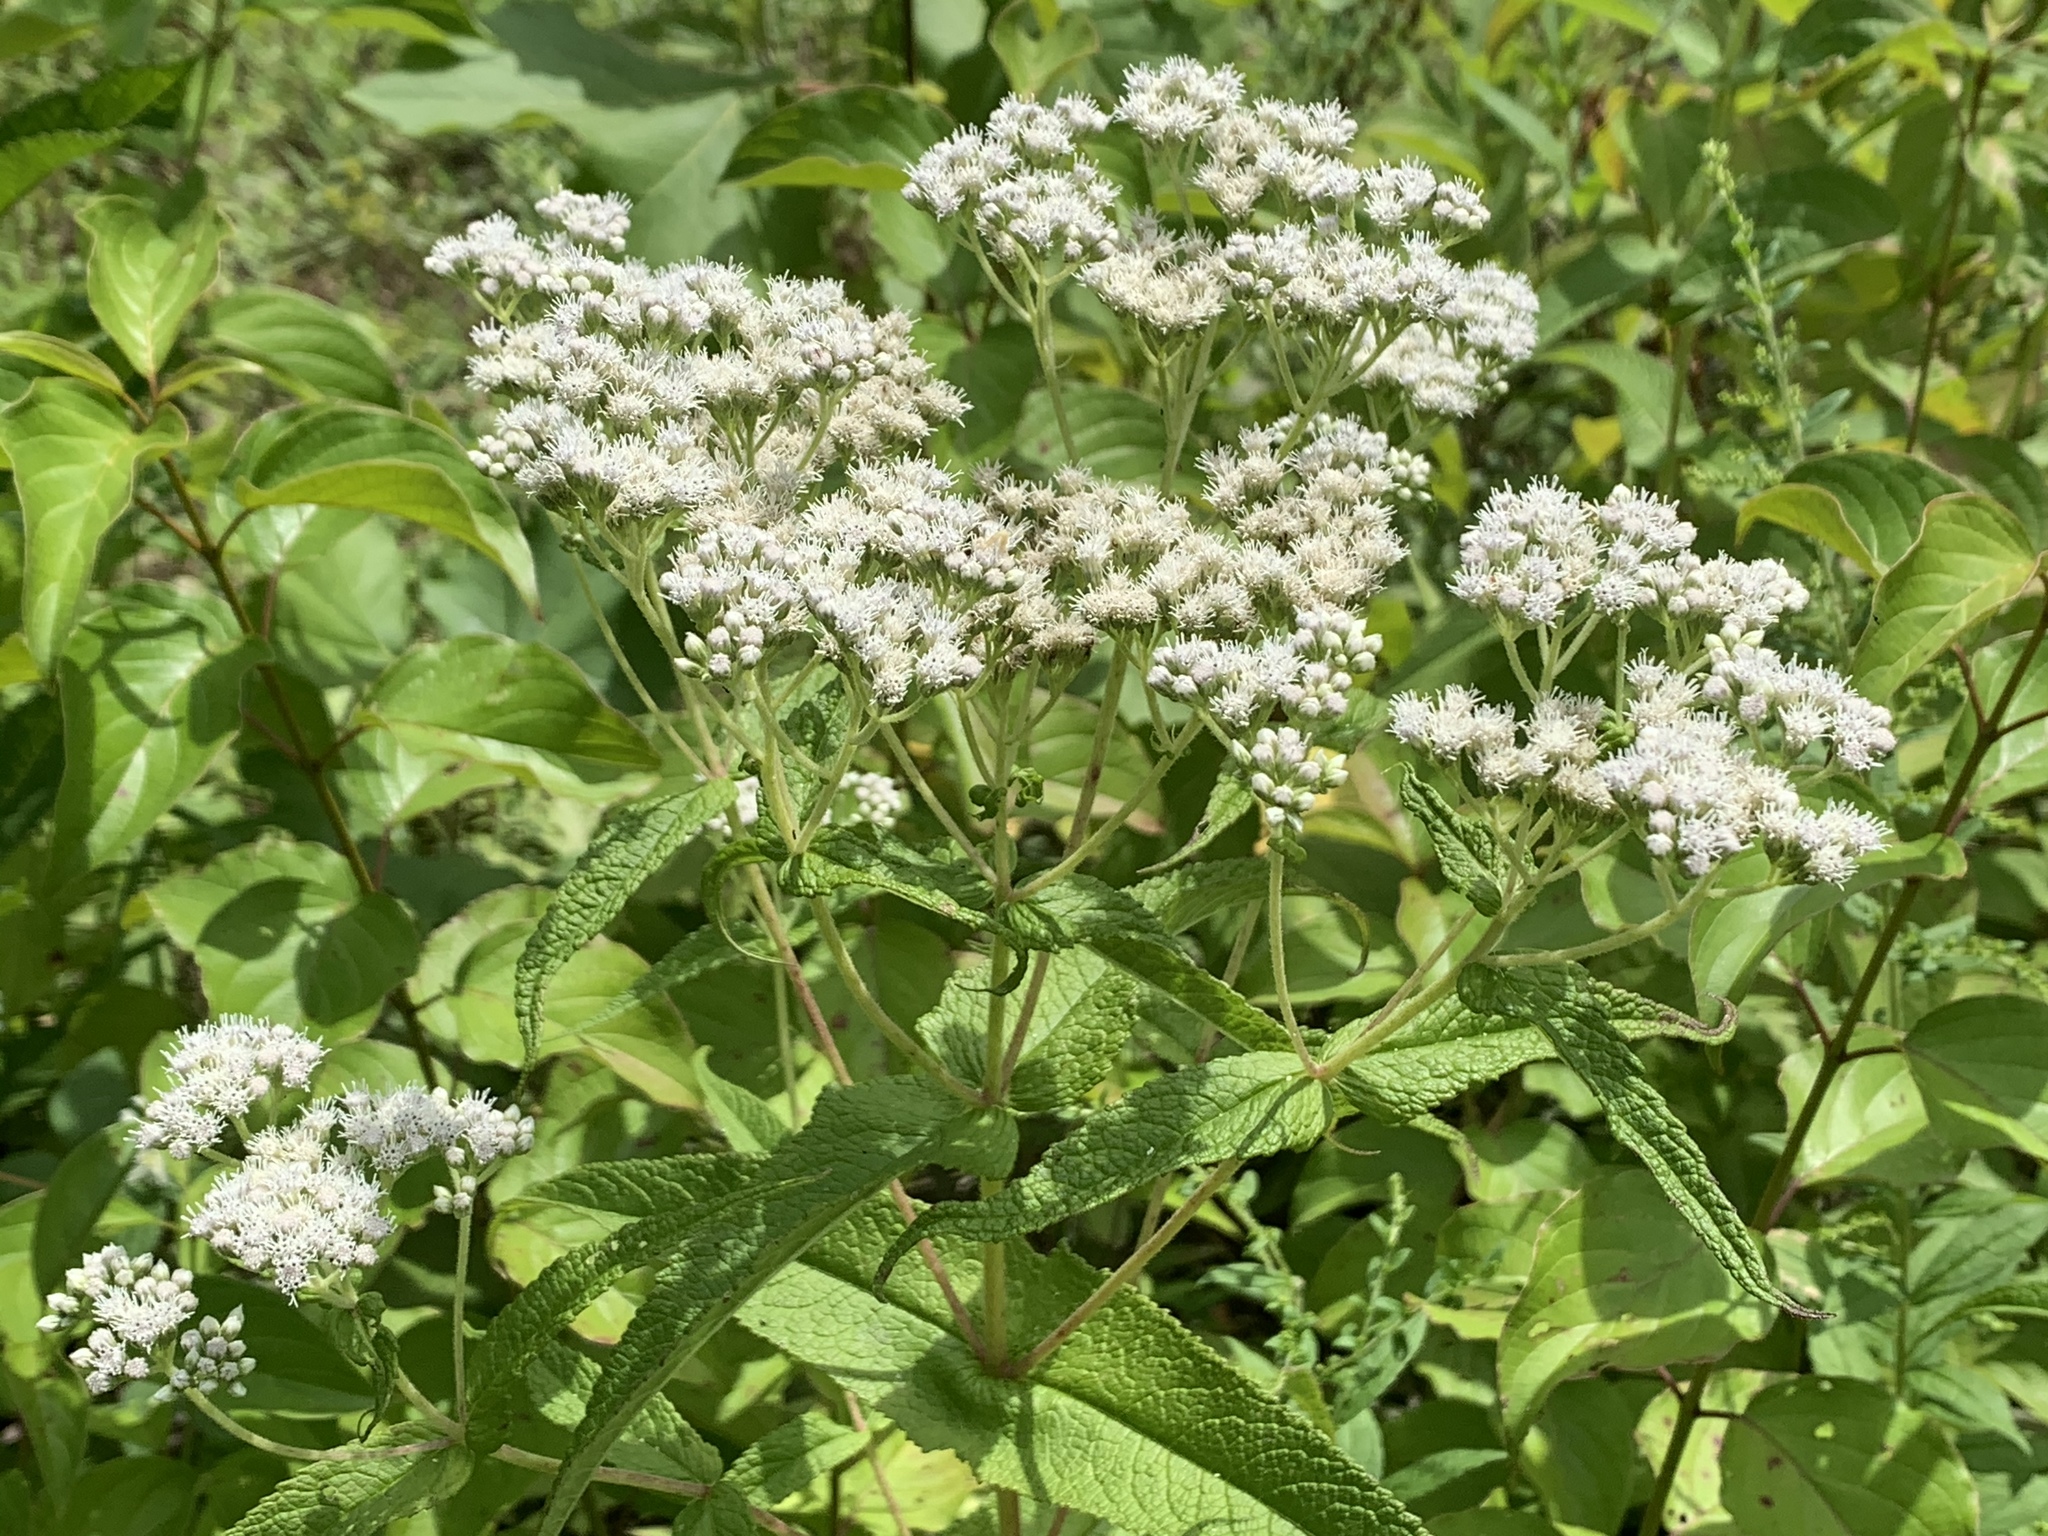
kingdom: Plantae
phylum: Tracheophyta
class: Magnoliopsida
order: Asterales
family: Asteraceae
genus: Eupatorium
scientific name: Eupatorium perfoliatum
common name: Boneset
